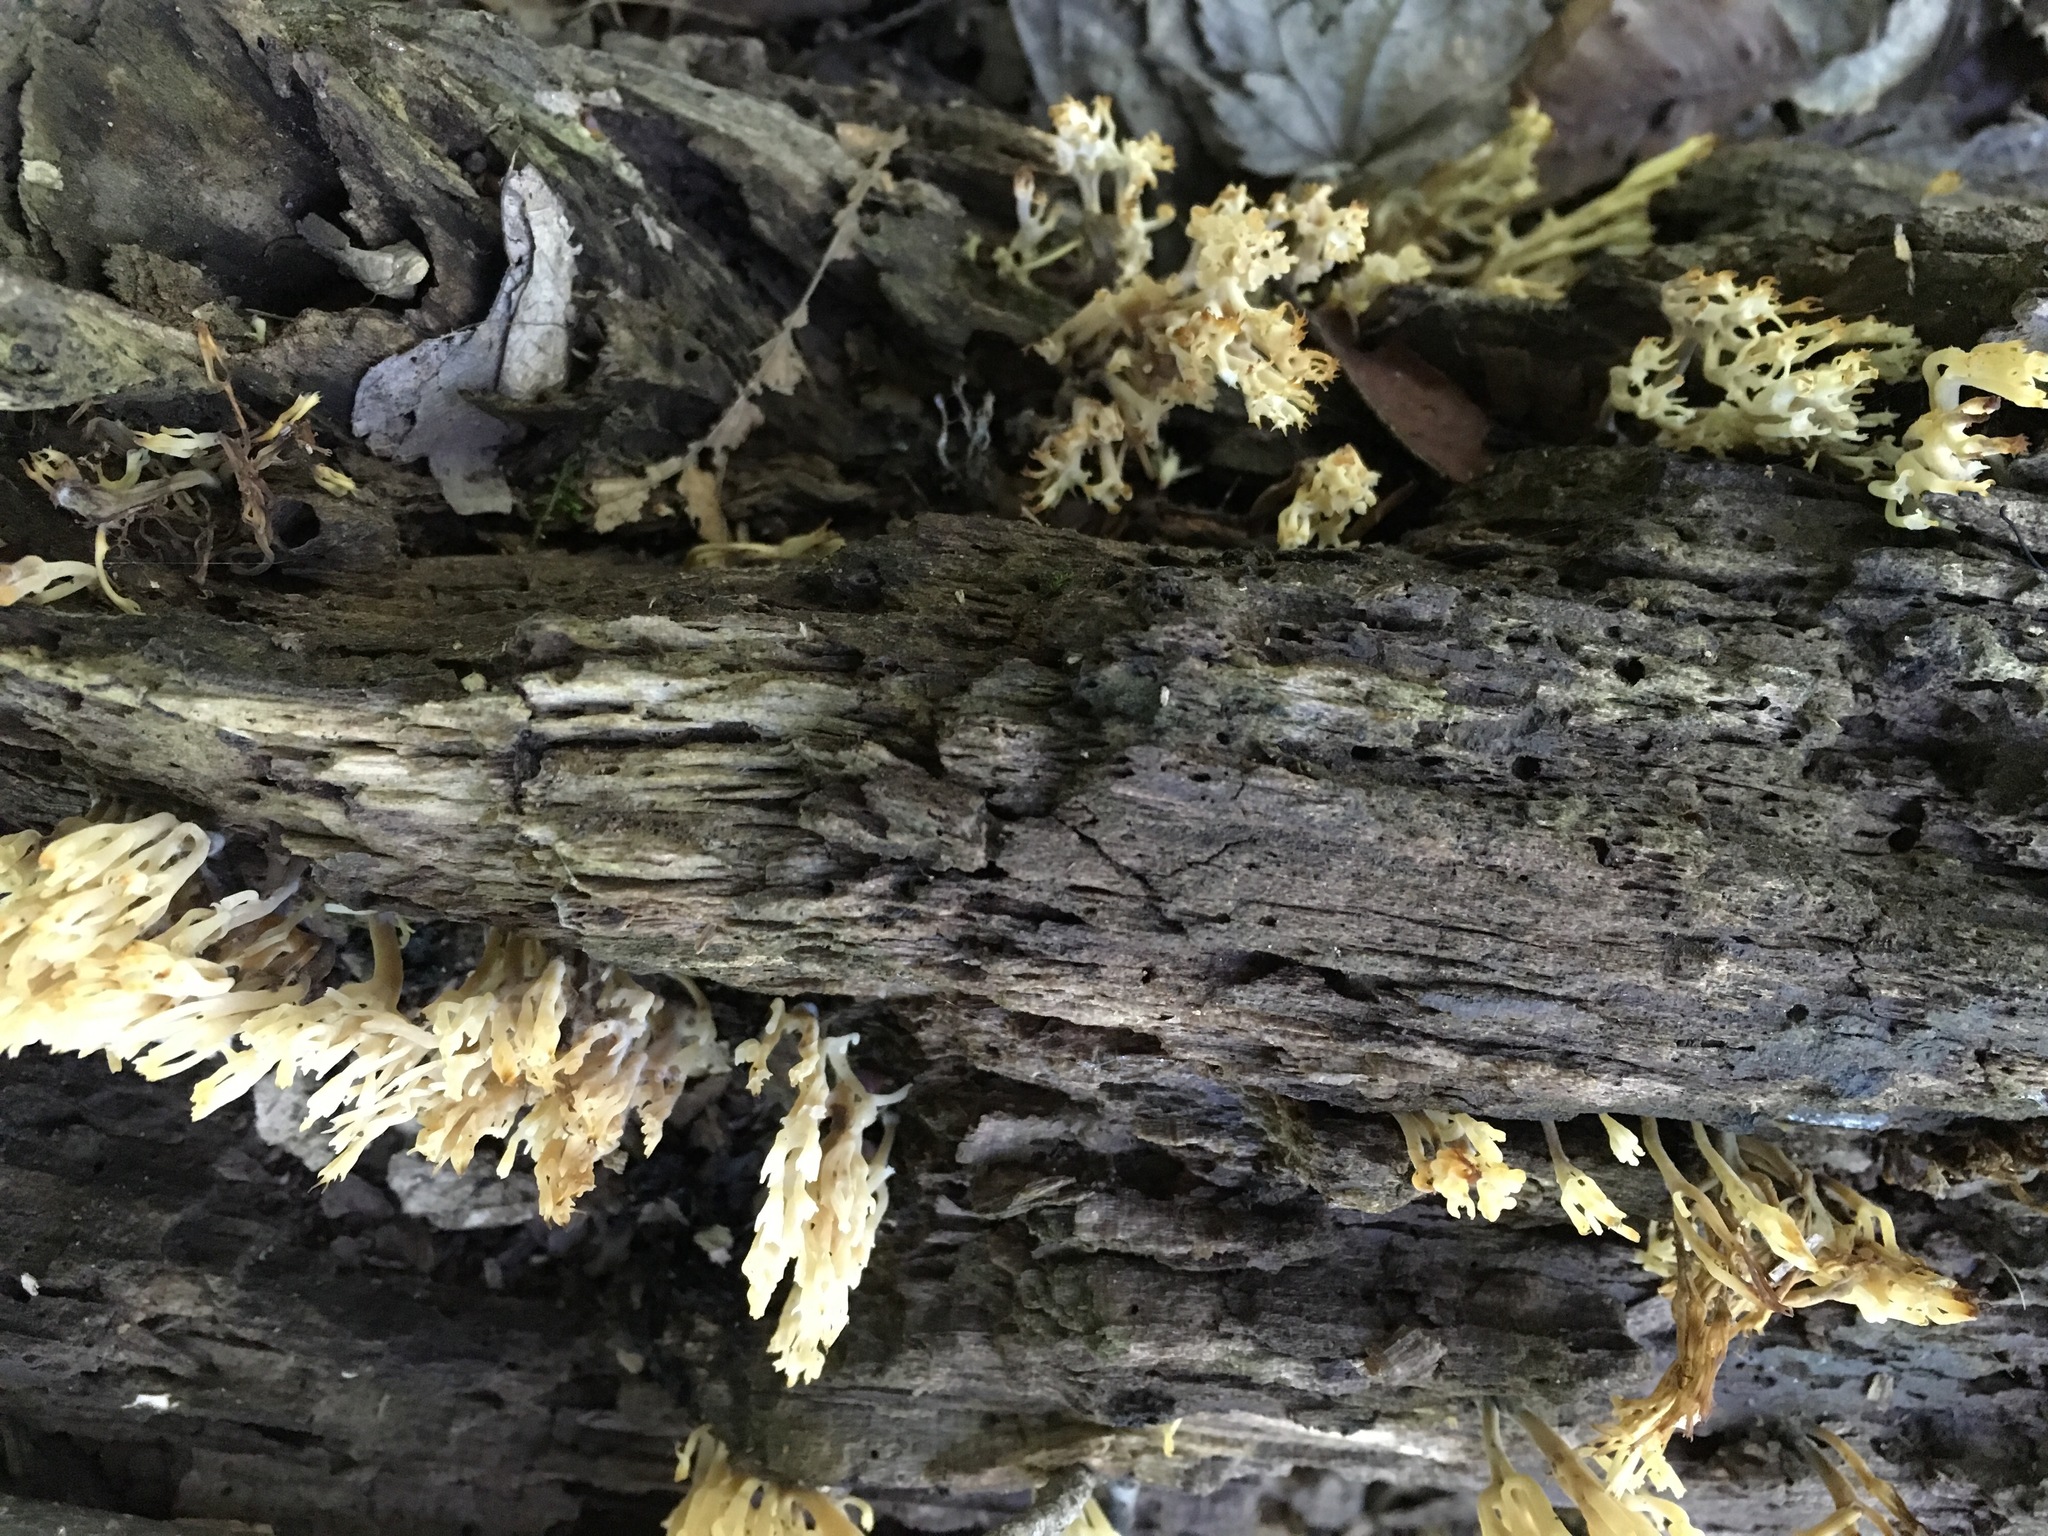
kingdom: Fungi
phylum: Basidiomycota
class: Agaricomycetes
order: Russulales
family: Auriscalpiaceae
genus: Artomyces
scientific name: Artomyces pyxidatus
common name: Crown-tipped coral fungus
